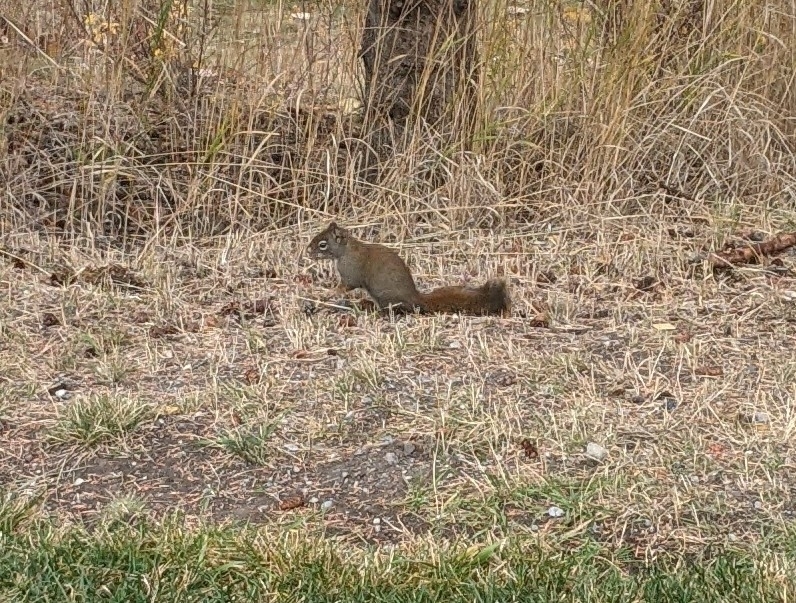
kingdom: Animalia
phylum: Chordata
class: Mammalia
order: Rodentia
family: Sciuridae
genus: Tamiasciurus
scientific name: Tamiasciurus hudsonicus
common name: Red squirrel
